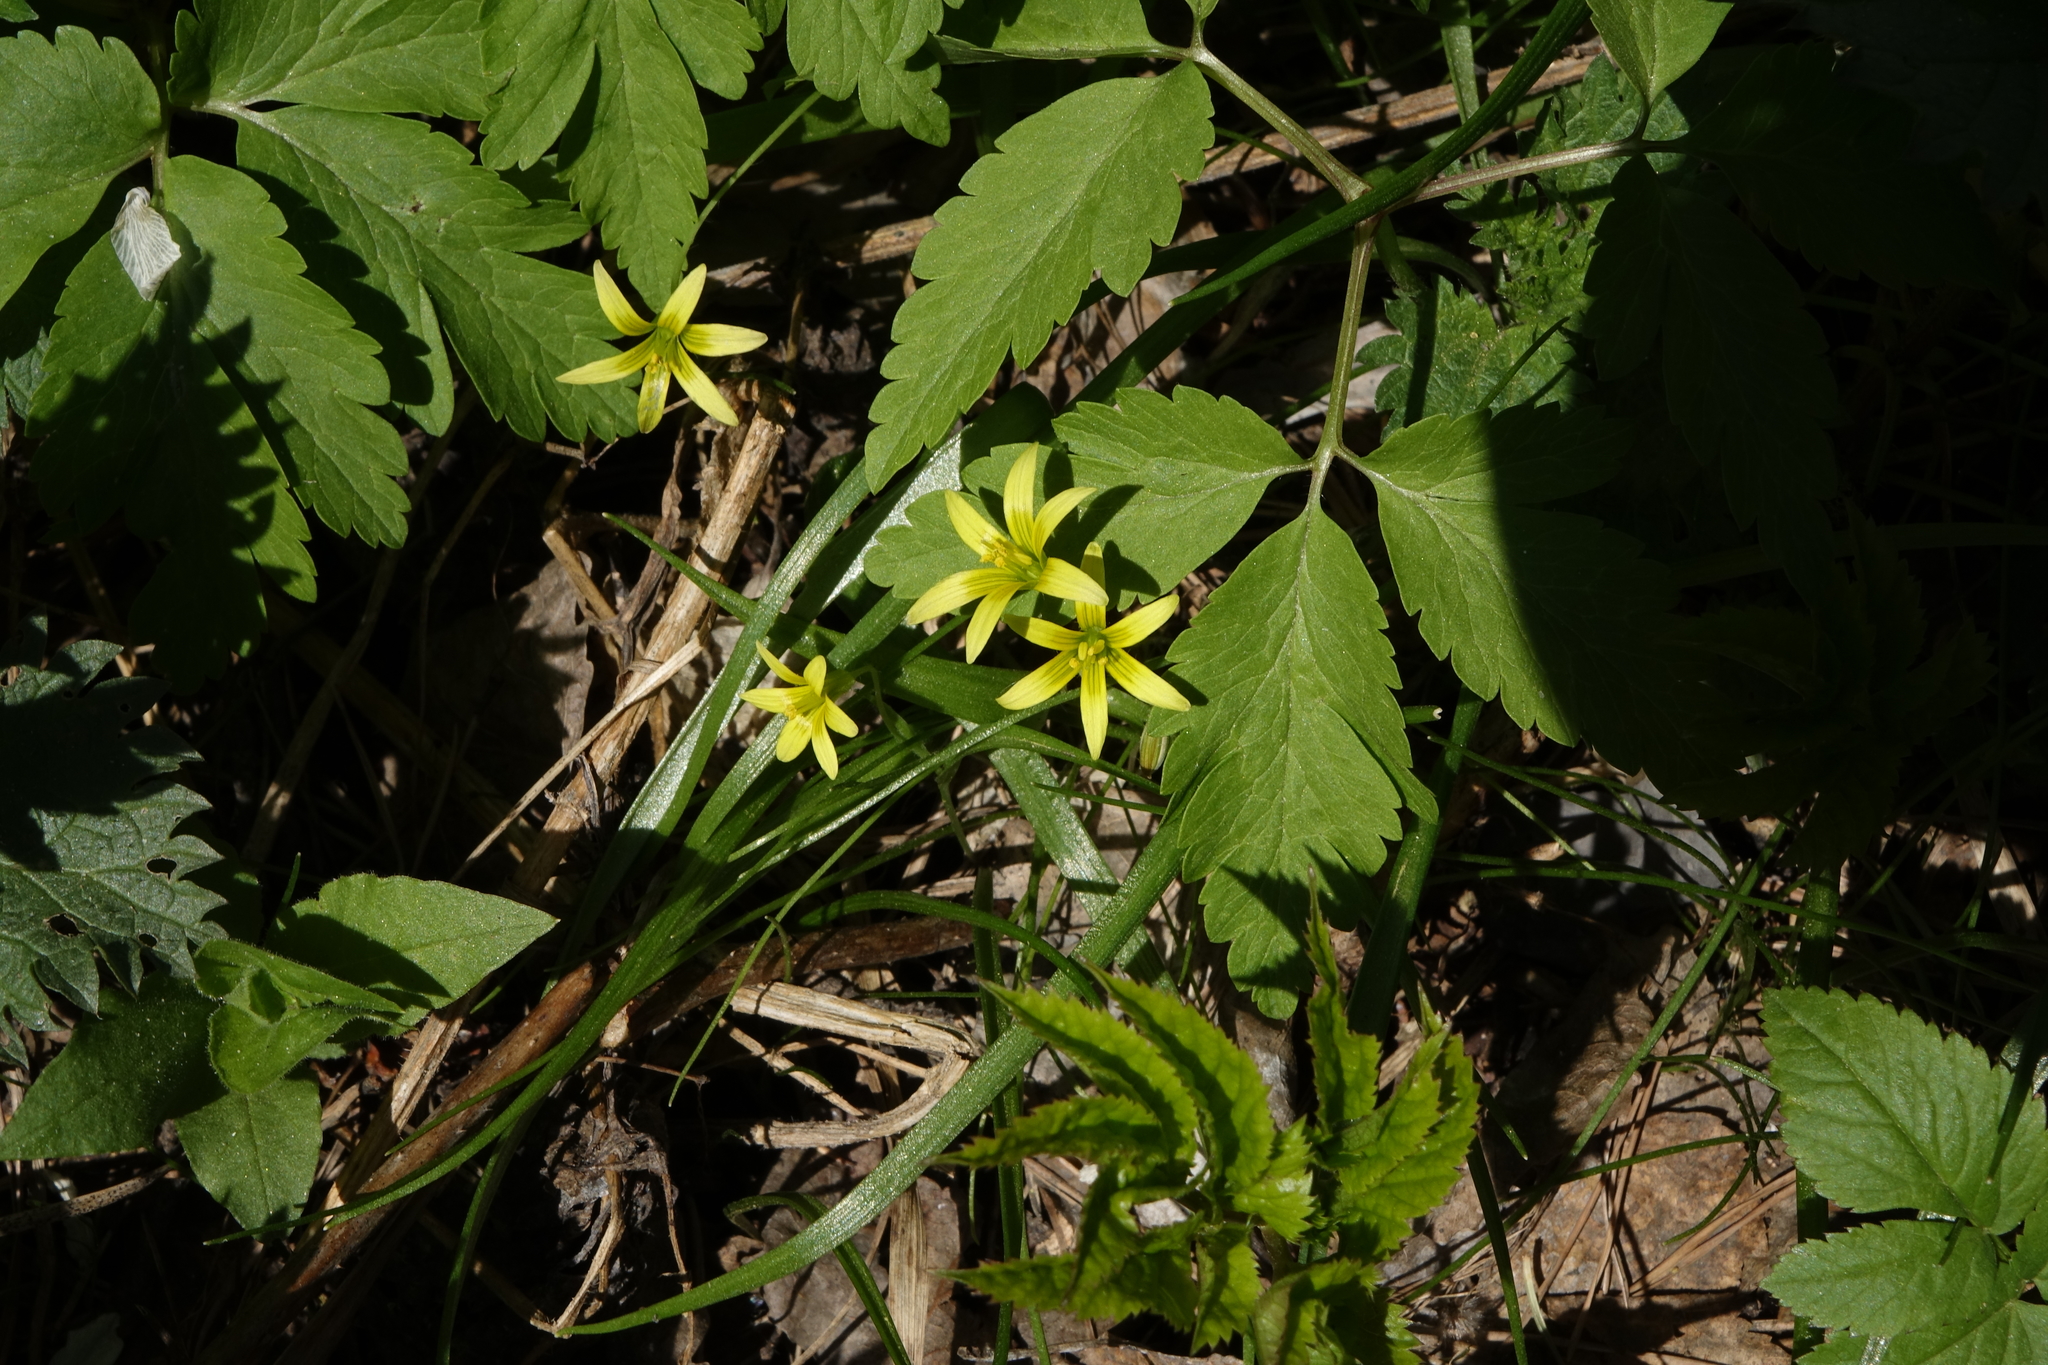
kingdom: Plantae
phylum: Tracheophyta
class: Liliopsida
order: Liliales
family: Liliaceae
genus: Gagea
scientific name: Gagea granulosa
